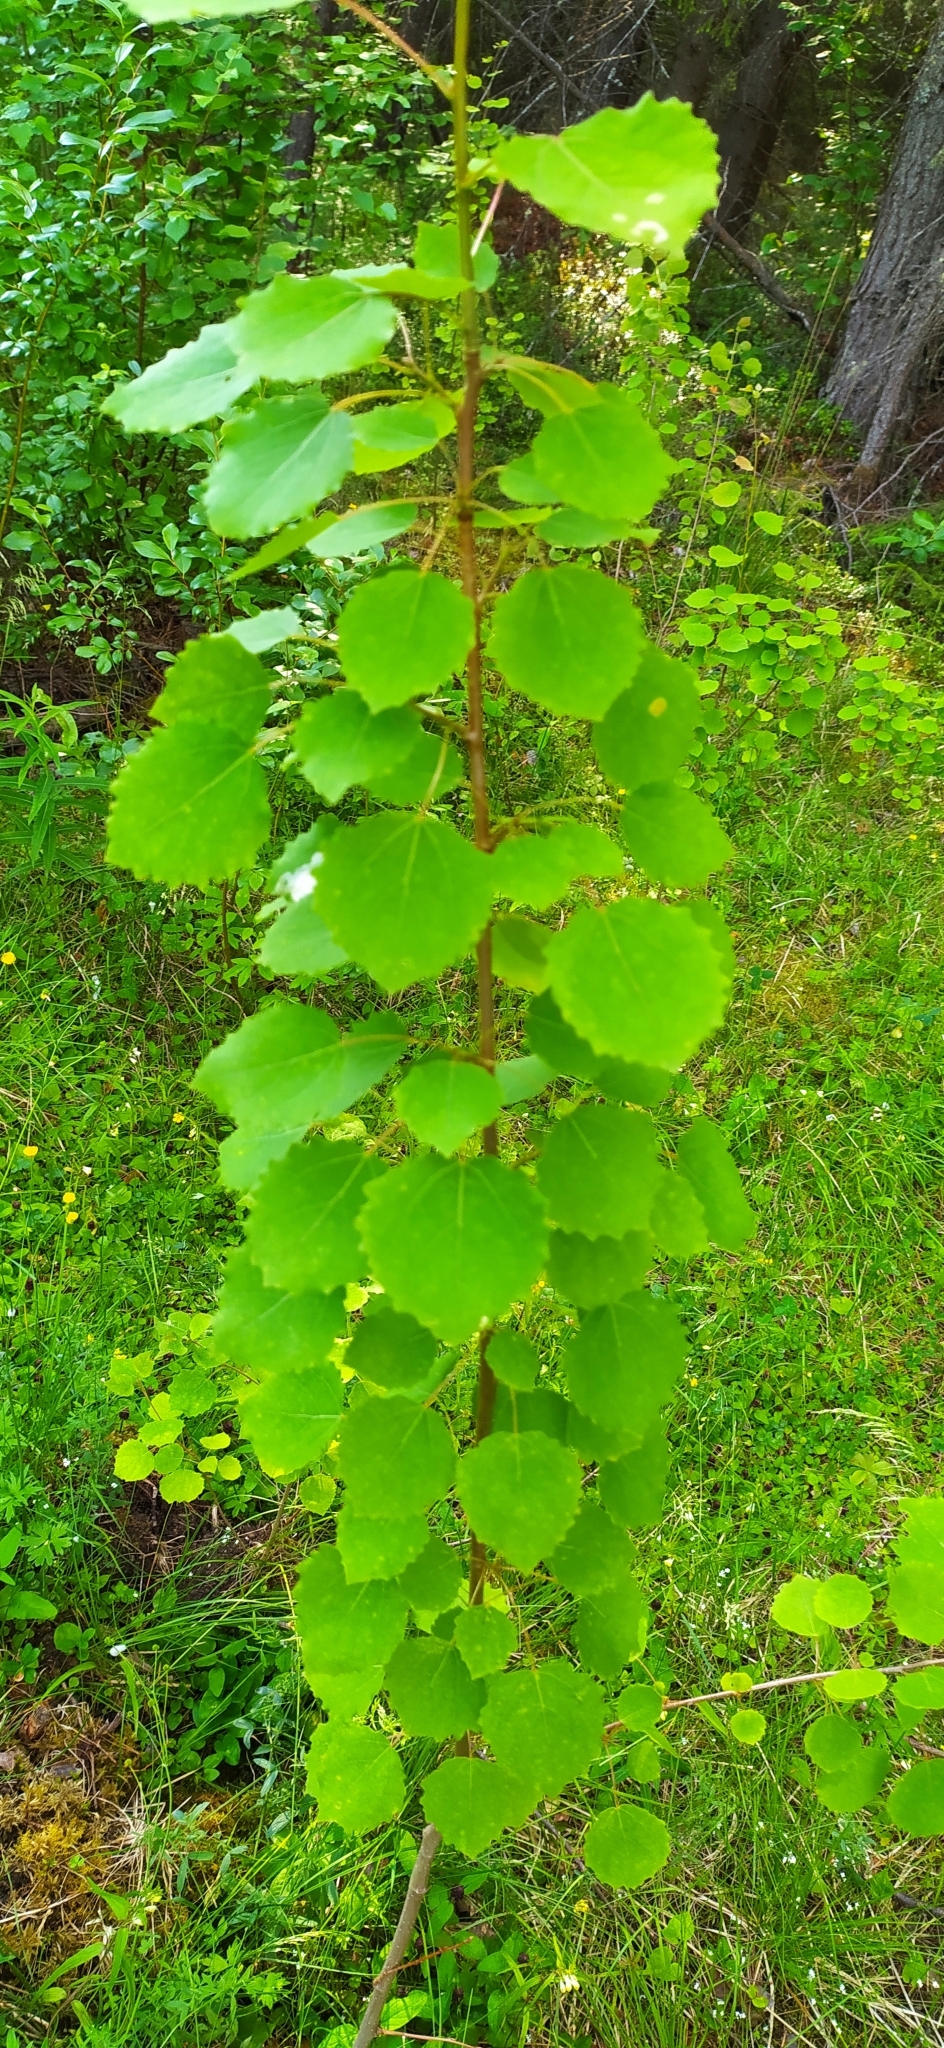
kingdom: Plantae
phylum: Tracheophyta
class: Magnoliopsida
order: Malpighiales
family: Salicaceae
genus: Populus
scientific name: Populus tremula
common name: European aspen
